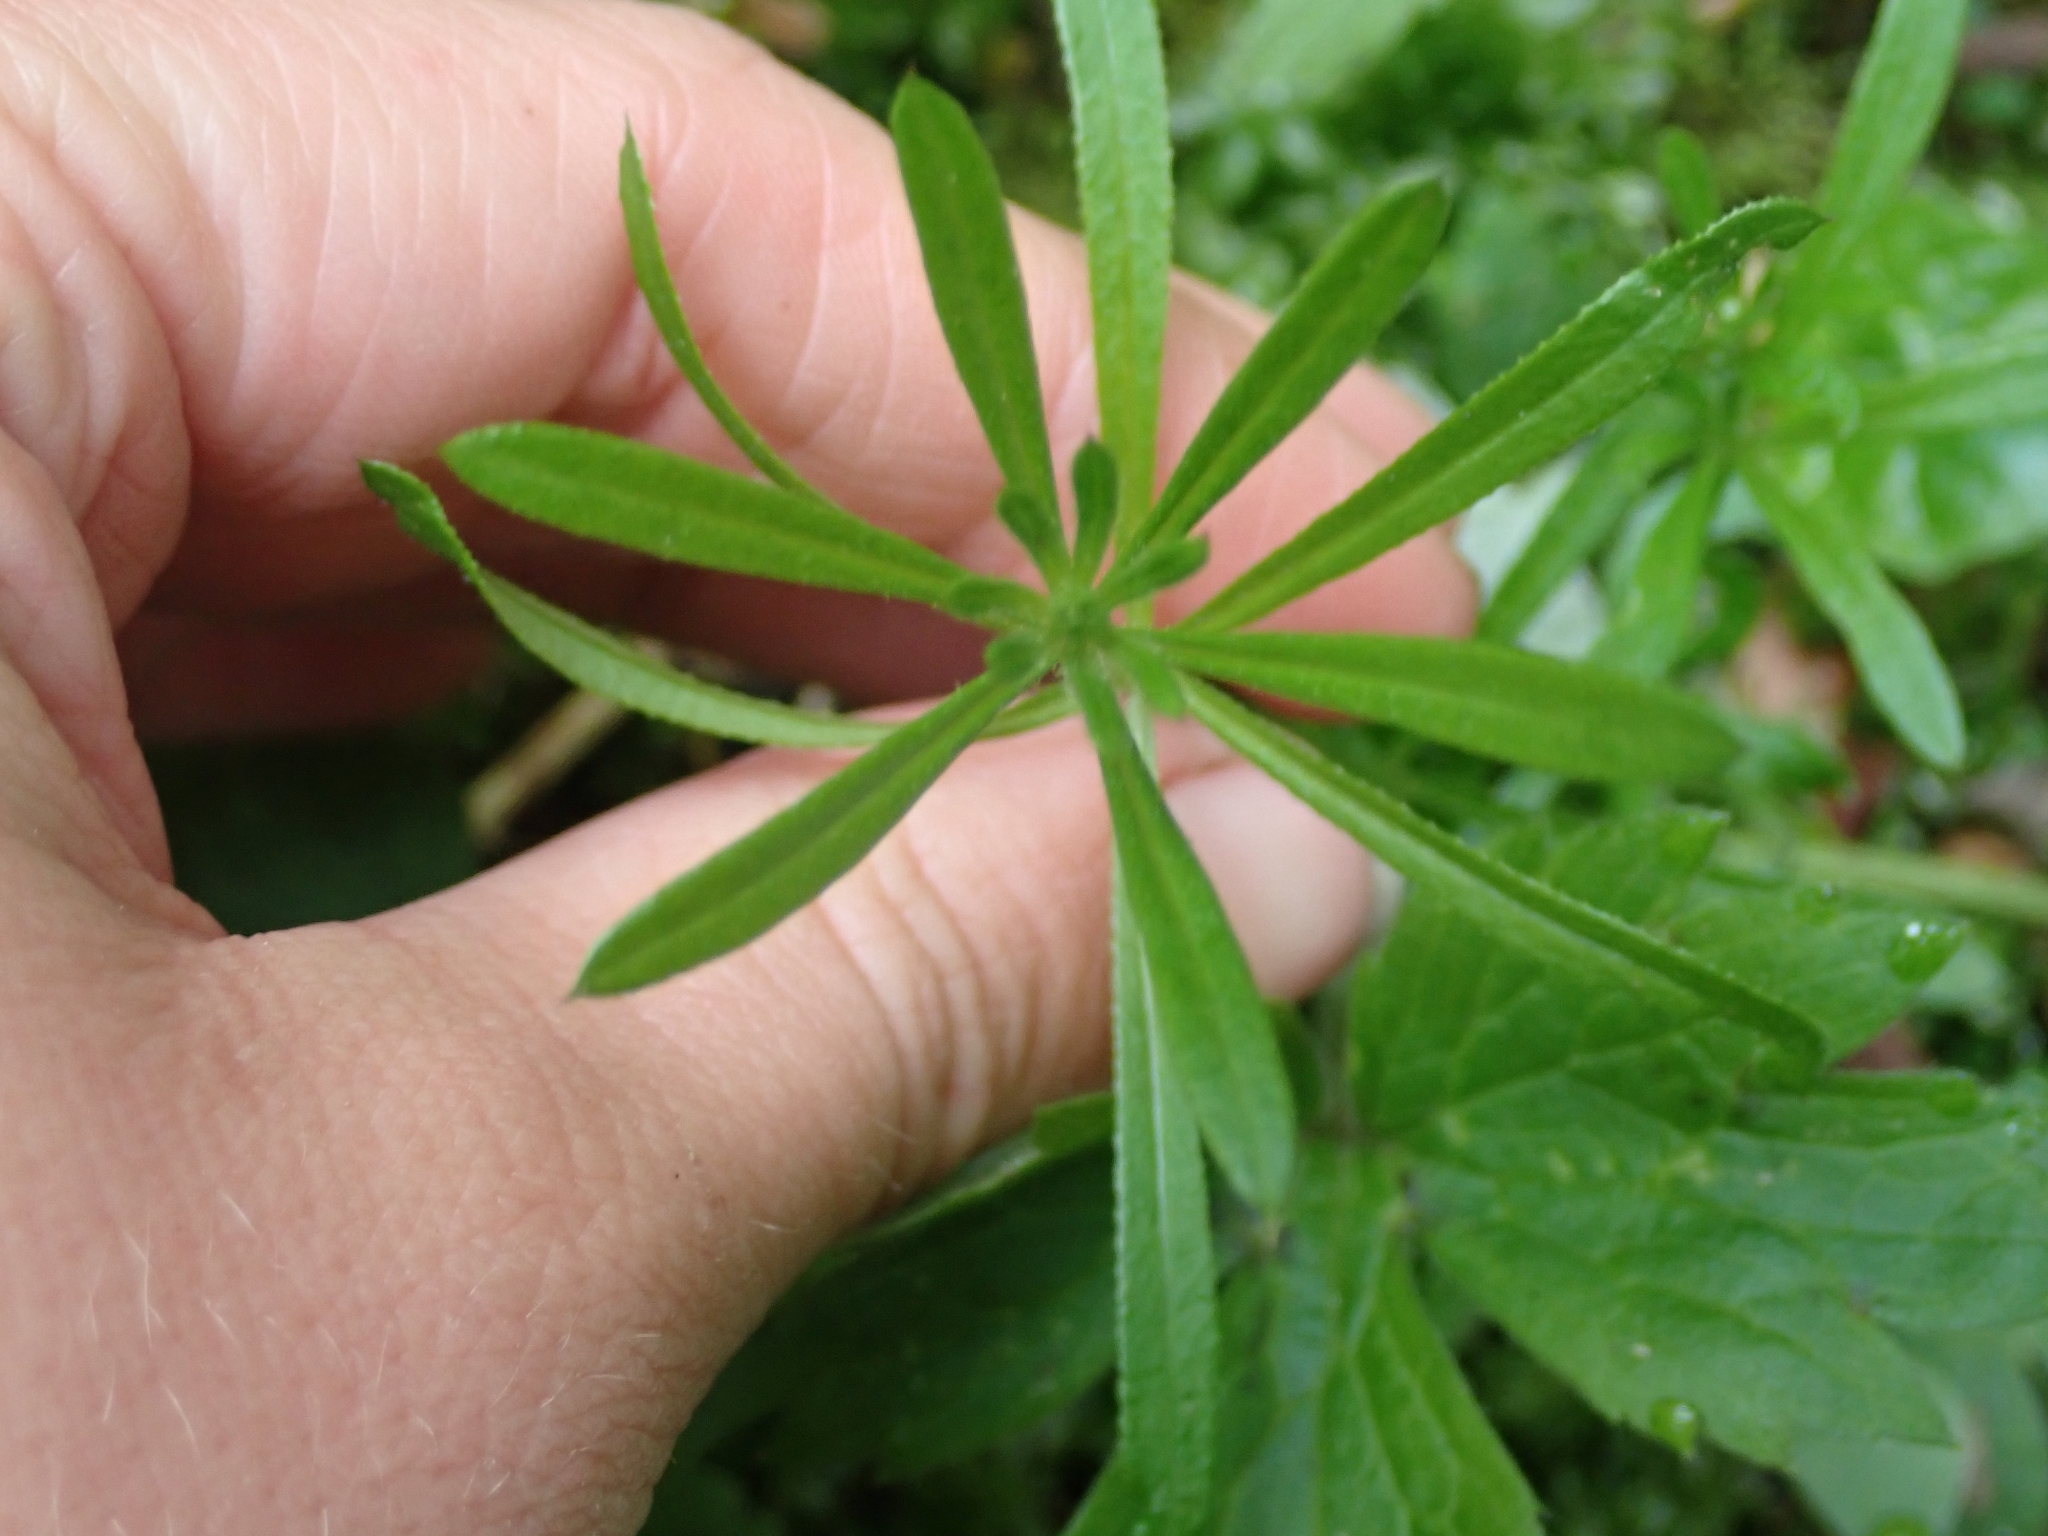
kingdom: Plantae
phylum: Tracheophyta
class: Magnoliopsida
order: Gentianales
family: Rubiaceae
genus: Galium
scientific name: Galium aparine
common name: Cleavers
